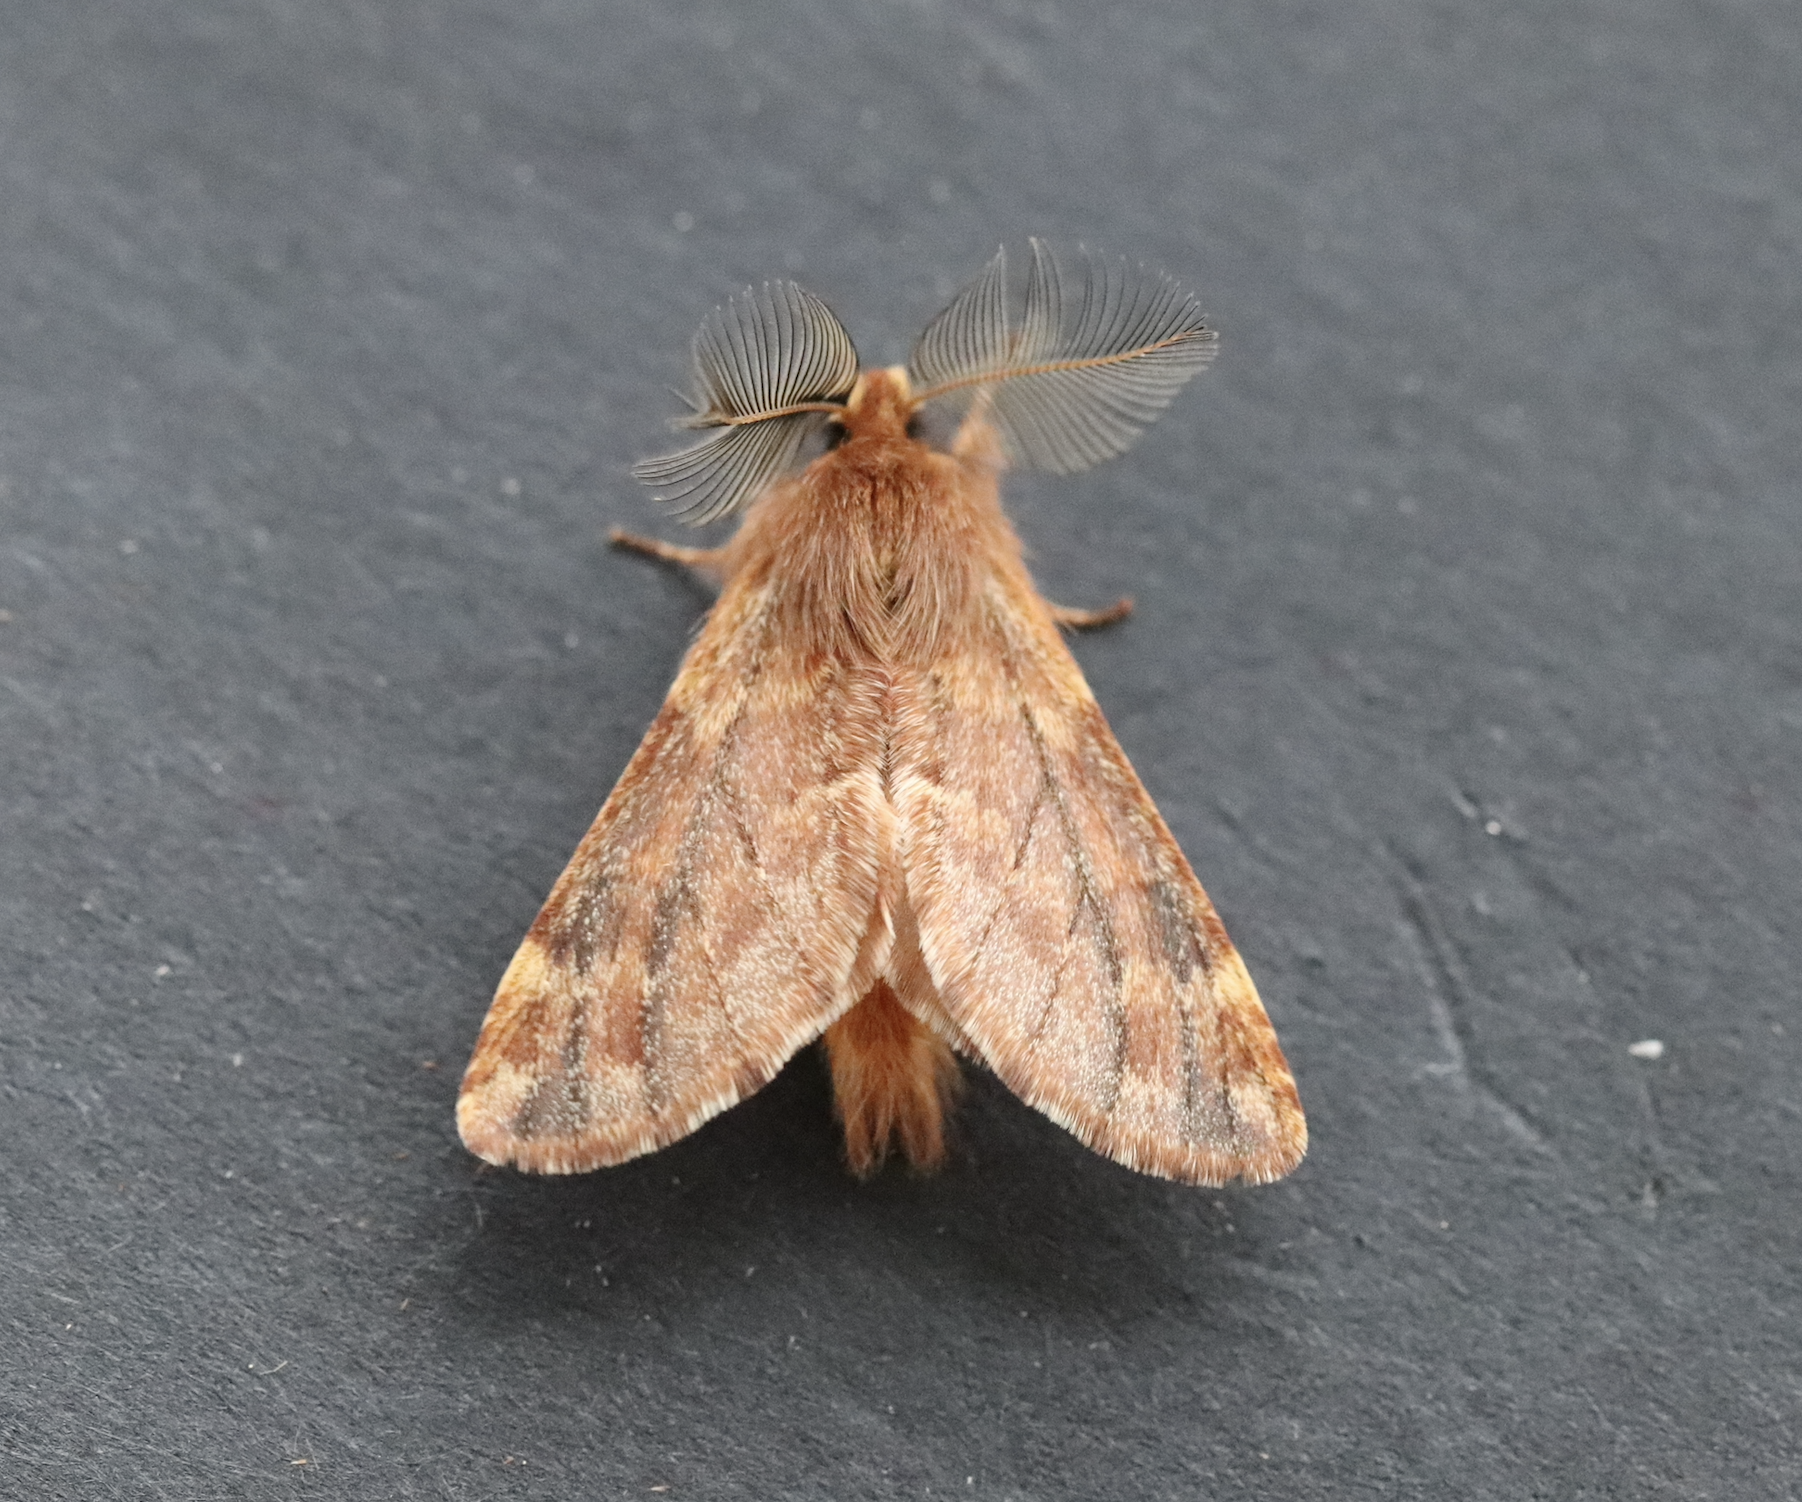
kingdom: Animalia
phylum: Arthropoda
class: Insecta
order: Lepidoptera
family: Notodontidae
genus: Ptilophora
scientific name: Ptilophora plumigera
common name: Plumed prominent
